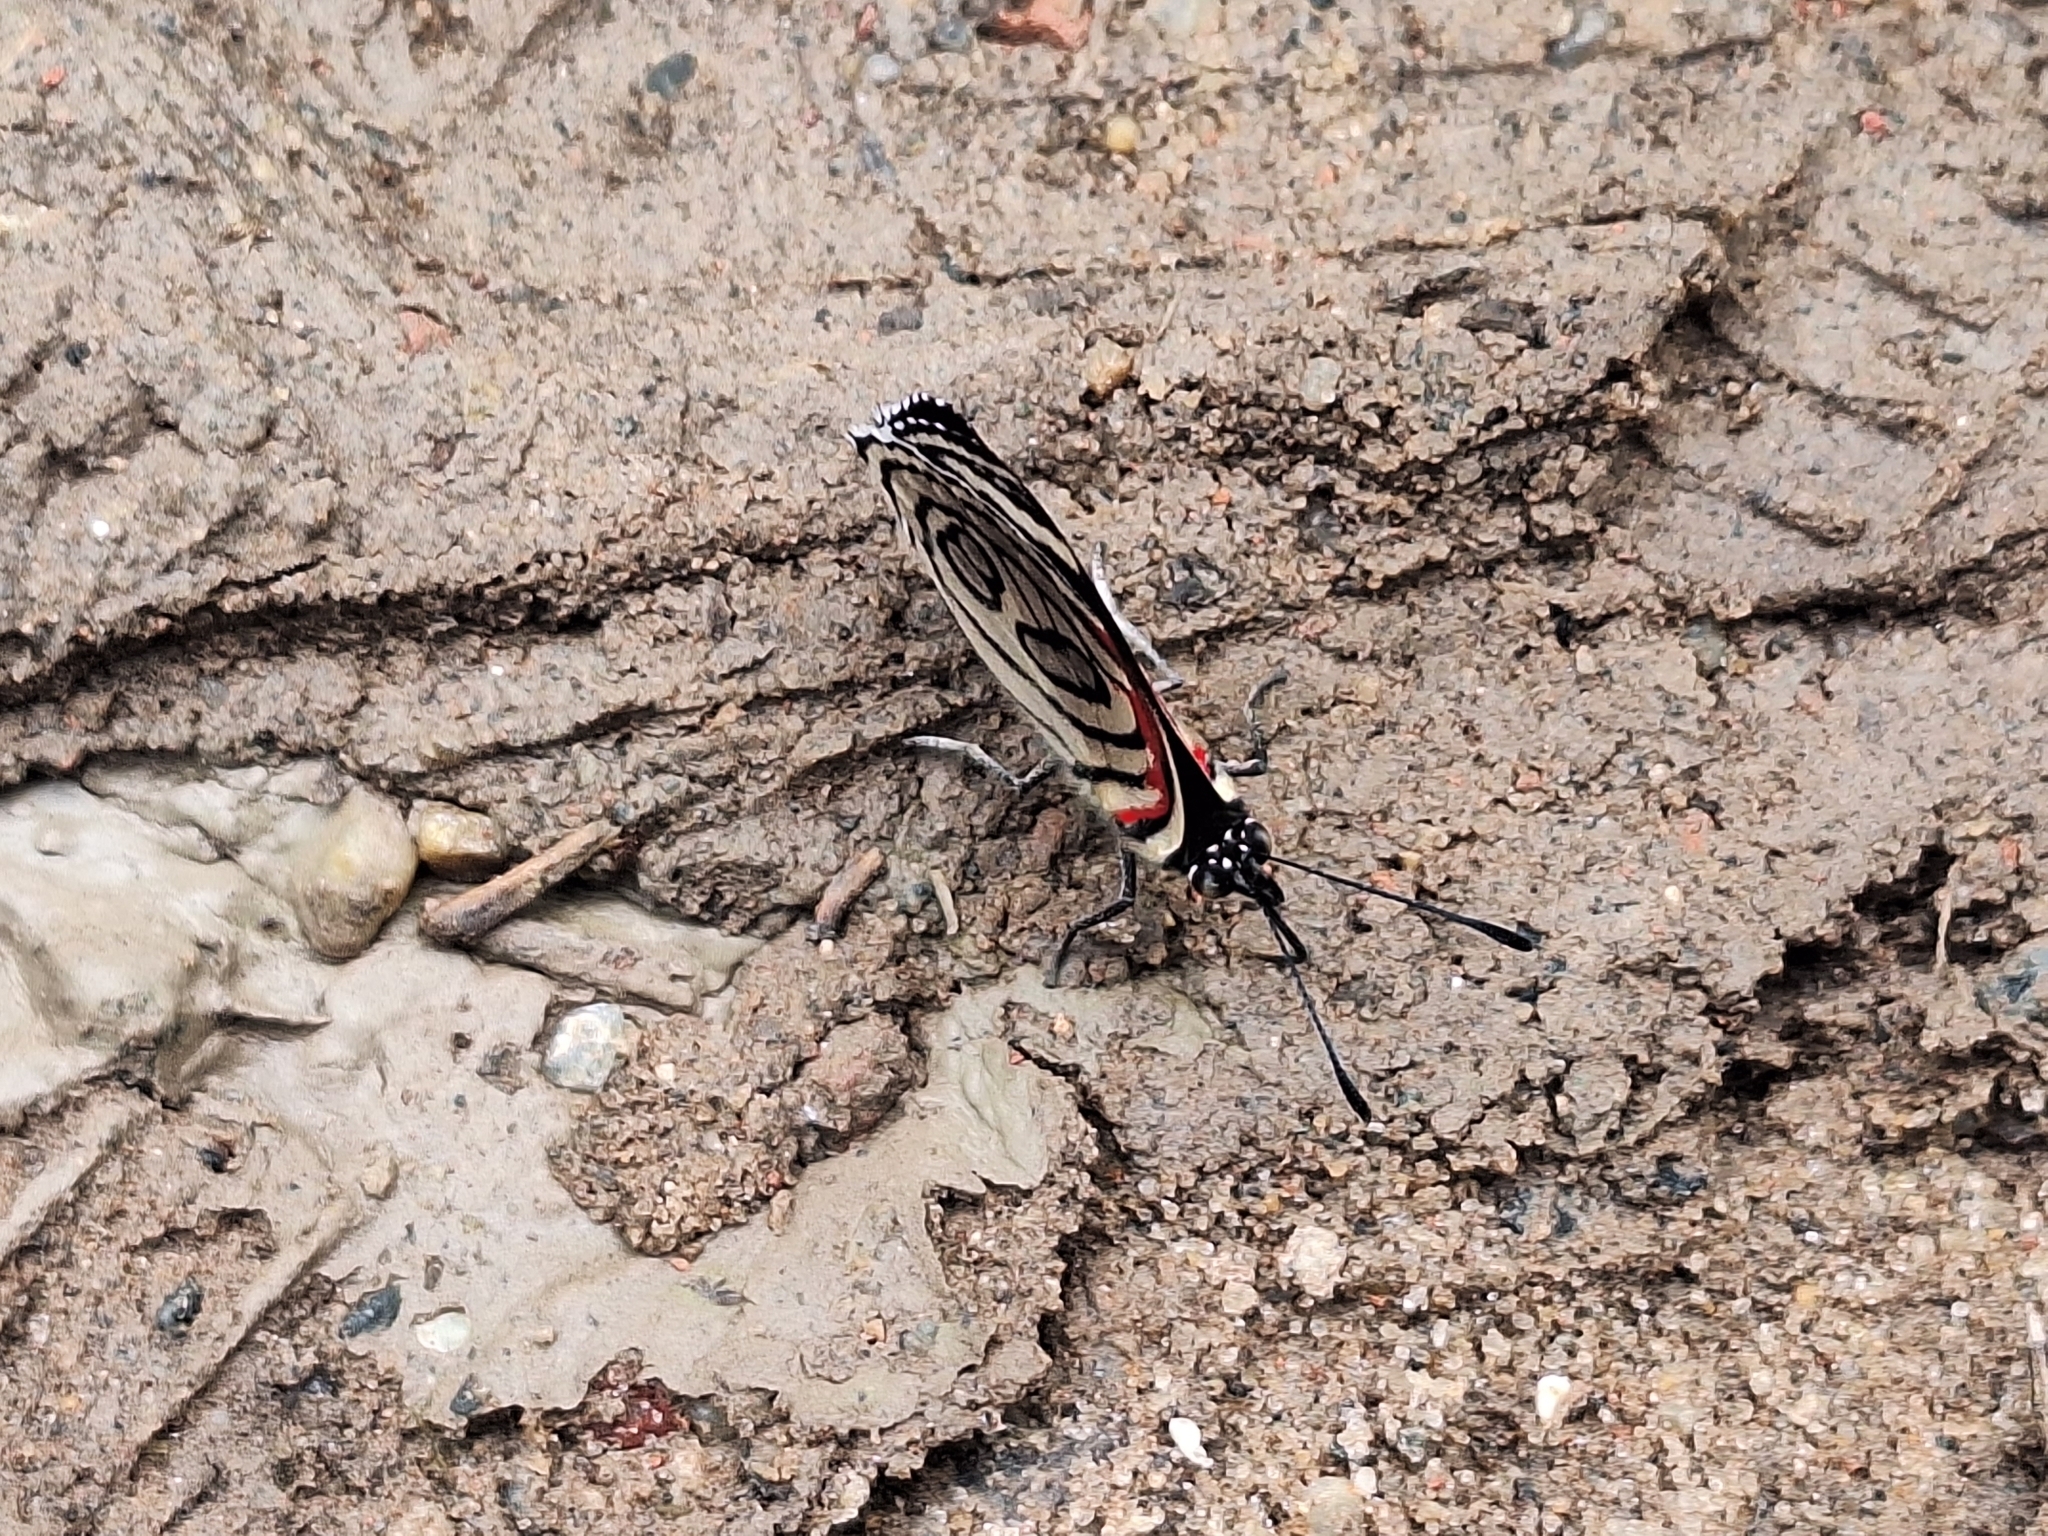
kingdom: Animalia
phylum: Arthropoda
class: Insecta
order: Lepidoptera
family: Nymphalidae
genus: Diaethria
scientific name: Diaethria candrena
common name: Number eighty
